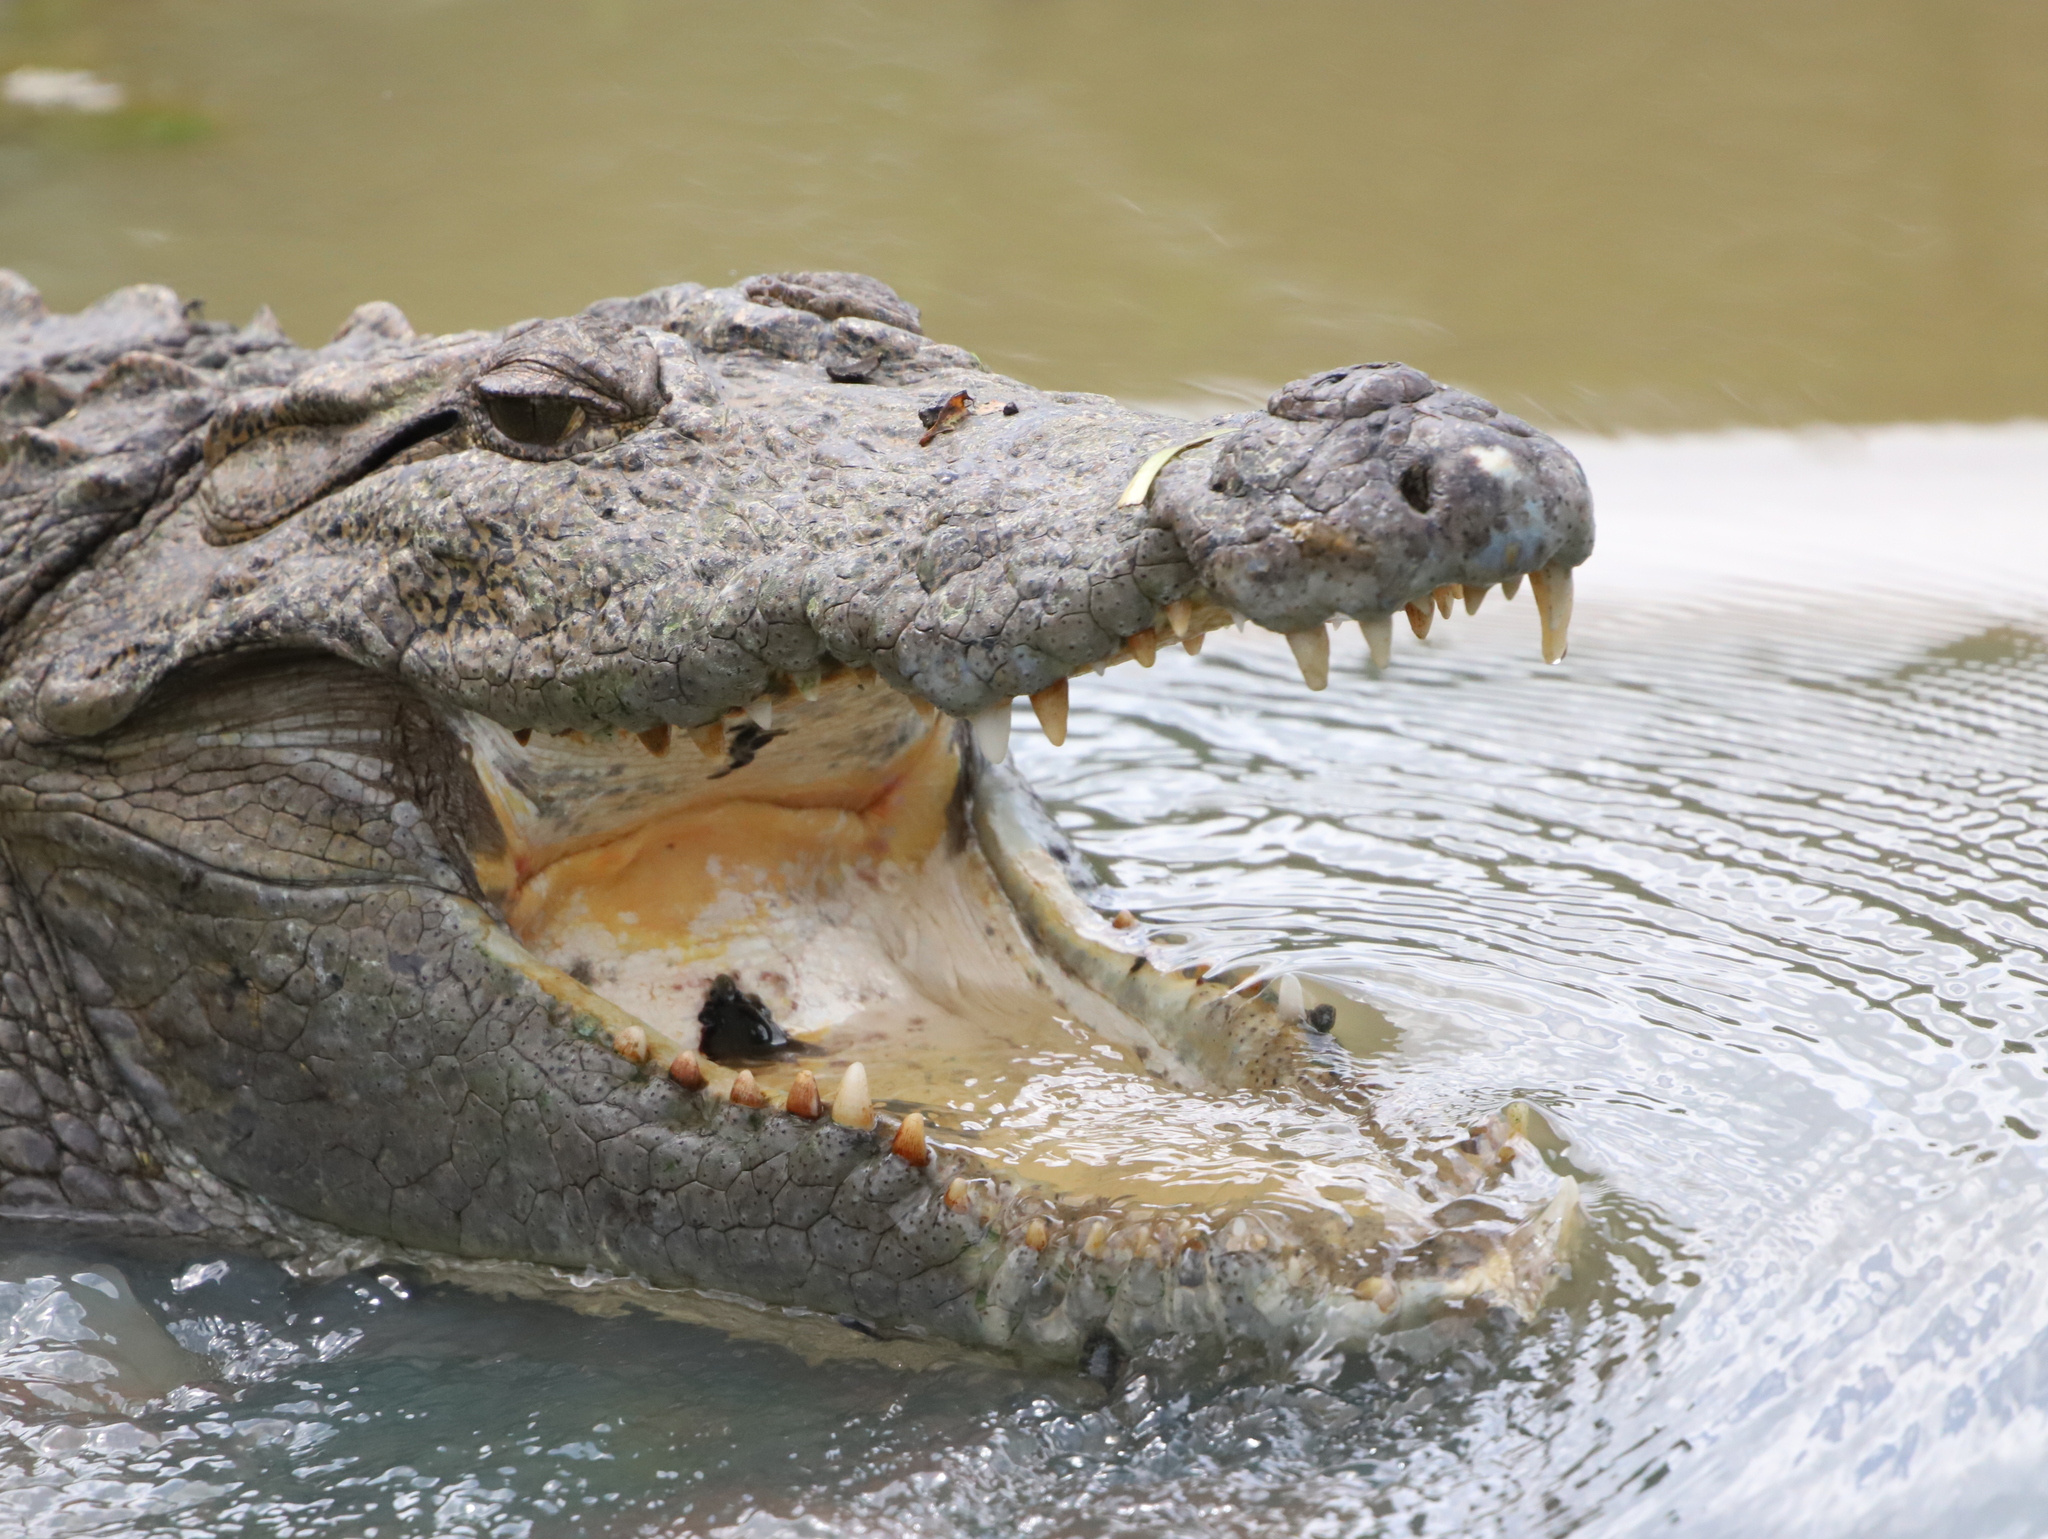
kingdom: Animalia
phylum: Chordata
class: Crocodylia
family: Crocodylidae
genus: Crocodylus
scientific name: Crocodylus palustris
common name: Mugger crocodile
